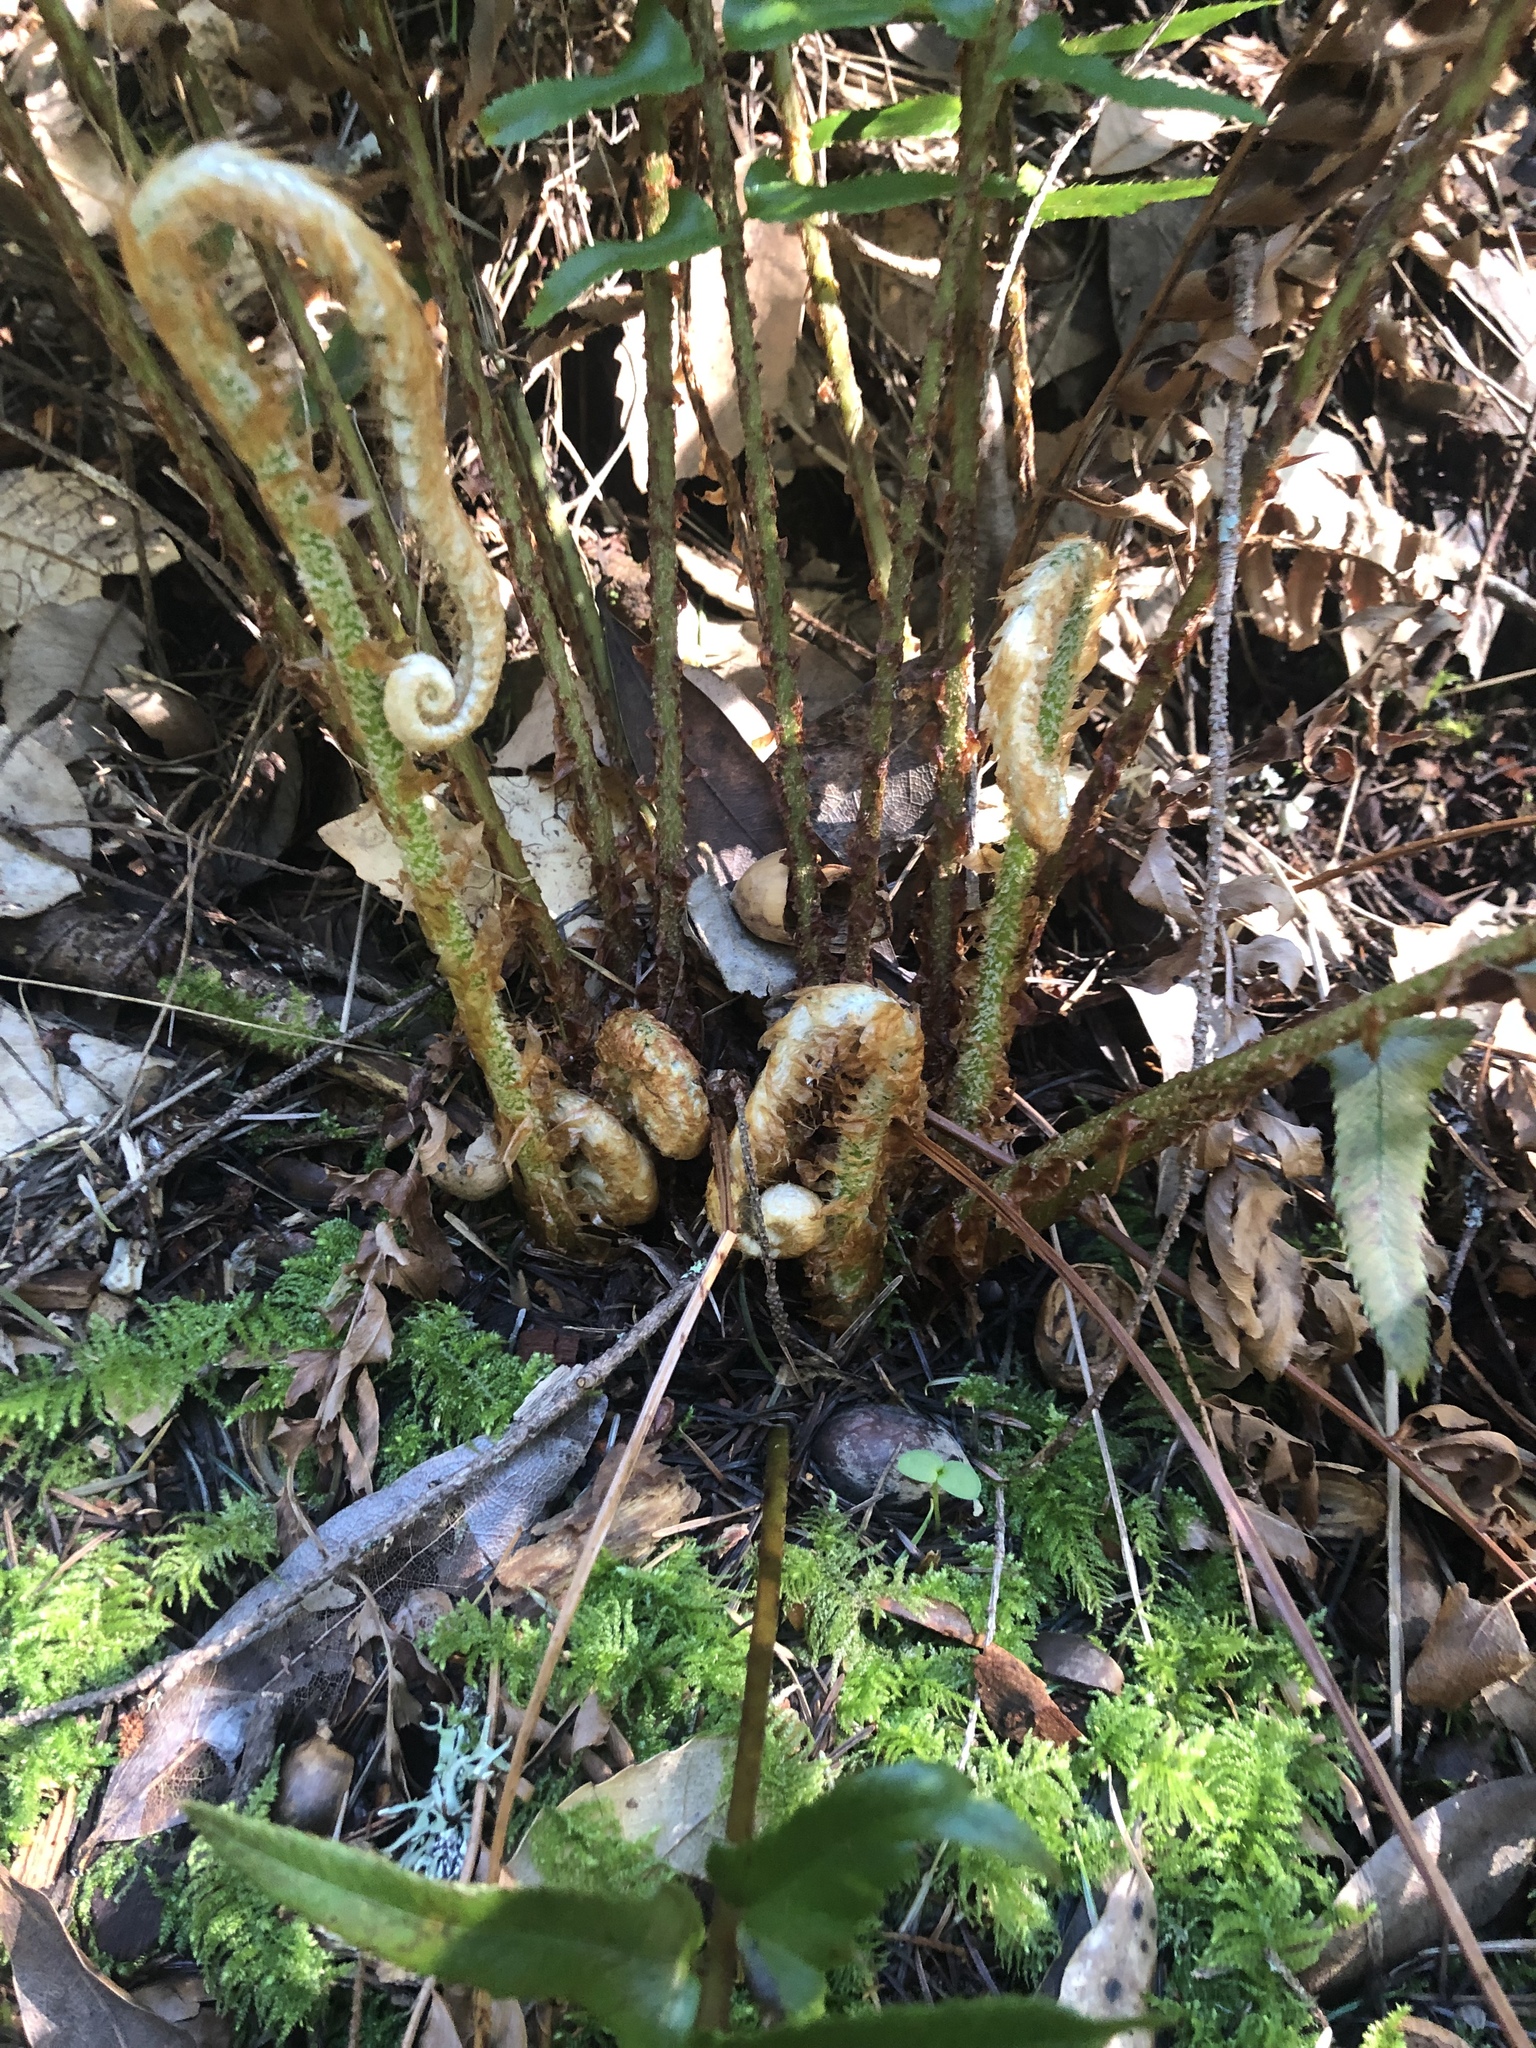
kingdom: Plantae
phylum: Tracheophyta
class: Polypodiopsida
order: Polypodiales
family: Dryopteridaceae
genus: Polystichum
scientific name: Polystichum munitum
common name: Western sword-fern
